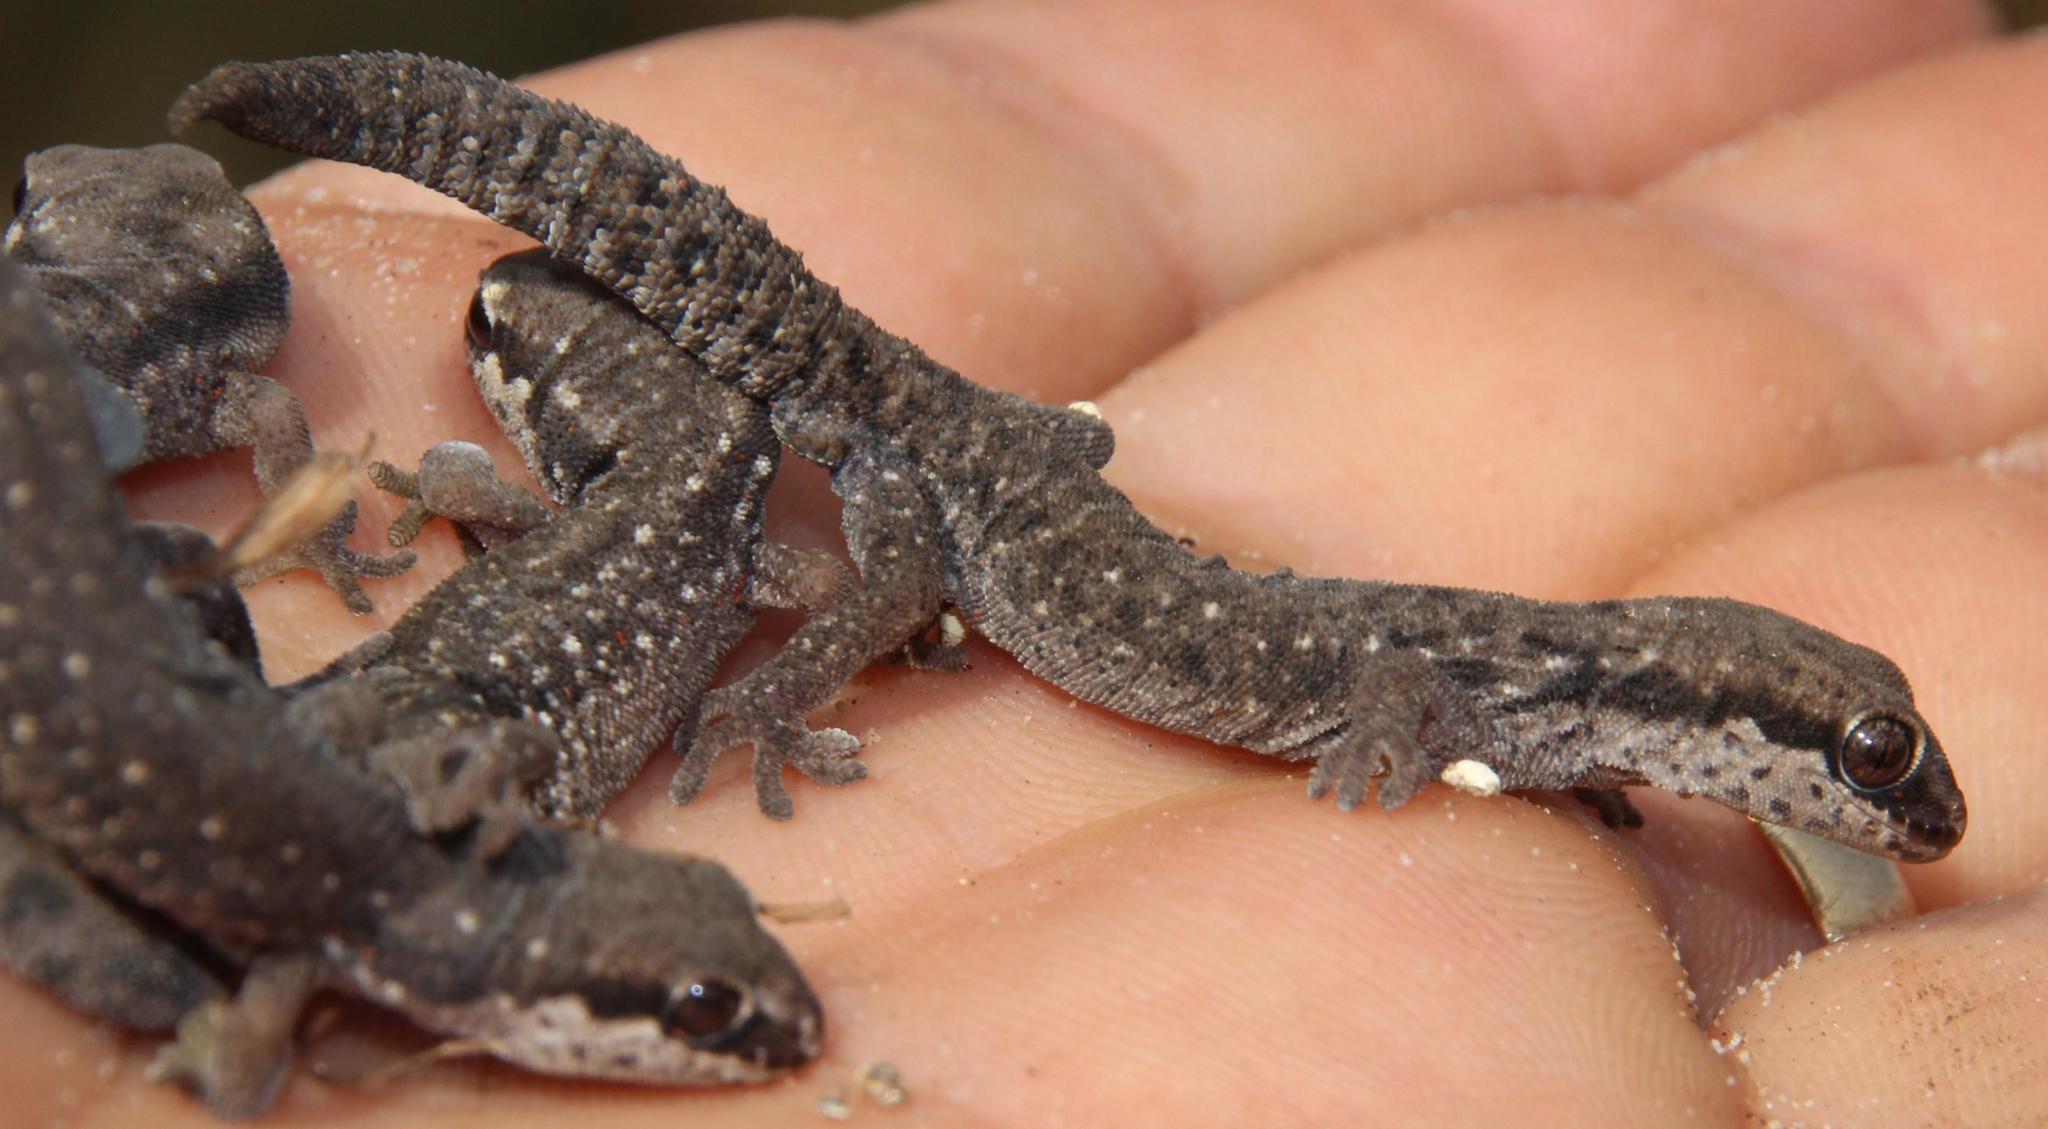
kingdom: Animalia
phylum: Chordata
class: Squamata
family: Gekkonidae
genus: Pachydactylus
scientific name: Pachydactylus geitje
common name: Ocellated thick-toed gecko
